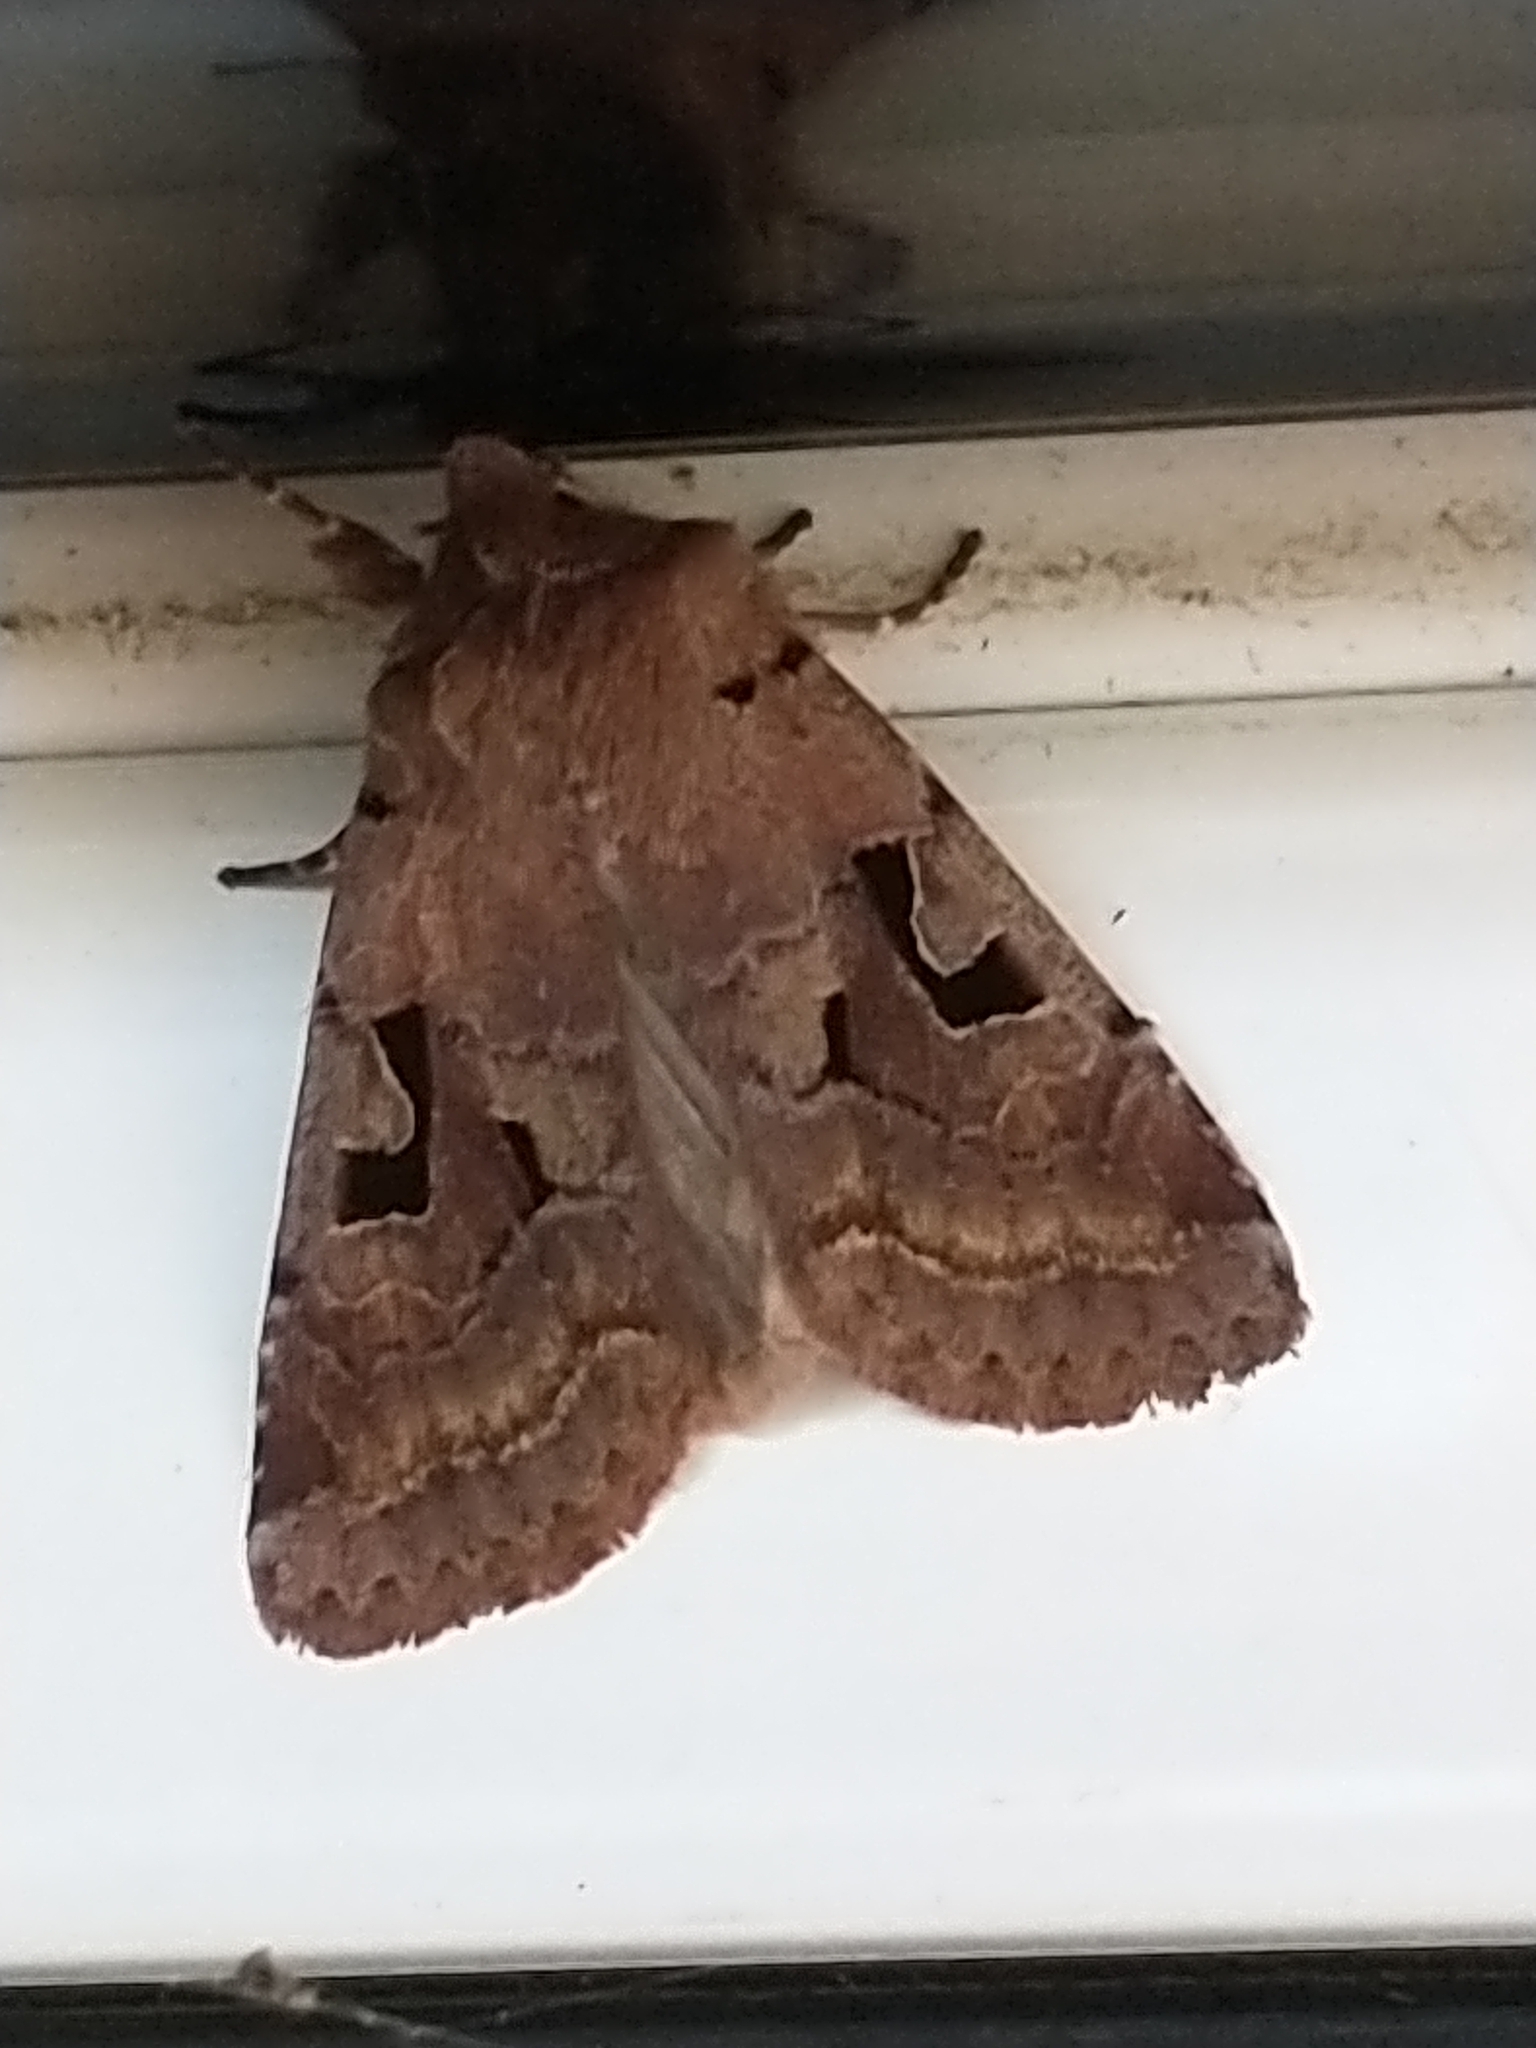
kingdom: Animalia
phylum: Arthropoda
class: Insecta
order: Lepidoptera
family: Noctuidae
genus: Orthosia
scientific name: Orthosia gothica
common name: Hebrew character
